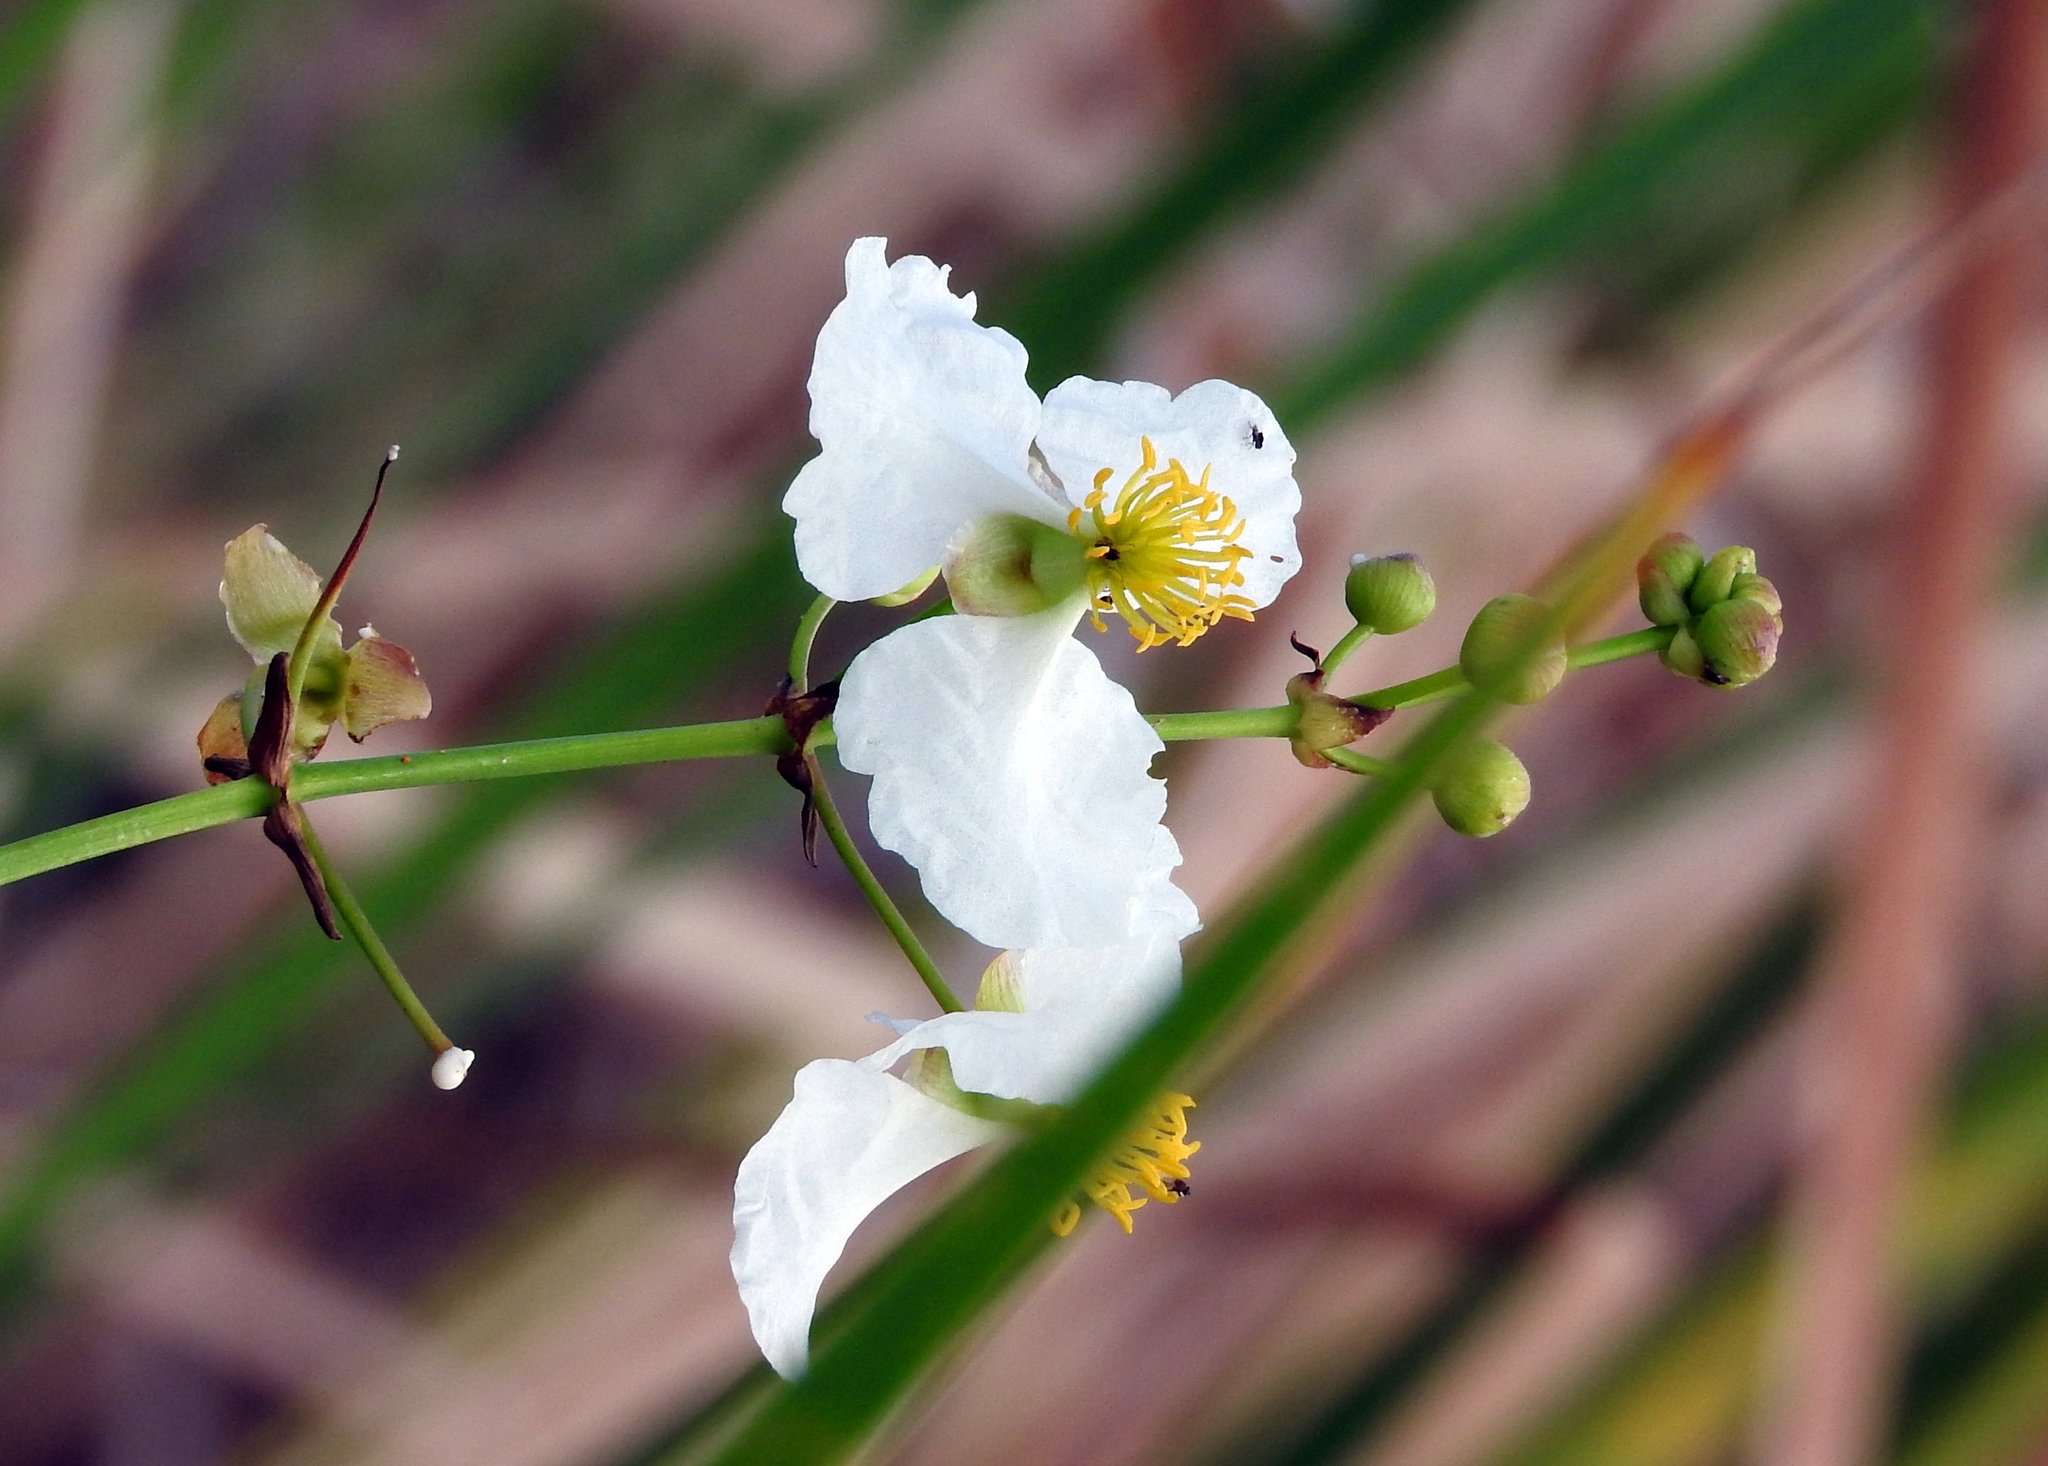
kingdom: Plantae
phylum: Tracheophyta
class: Liliopsida
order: Alismatales
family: Alismataceae
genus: Sagittaria
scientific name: Sagittaria lancifolia
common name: Lance-leaf arrowhead
